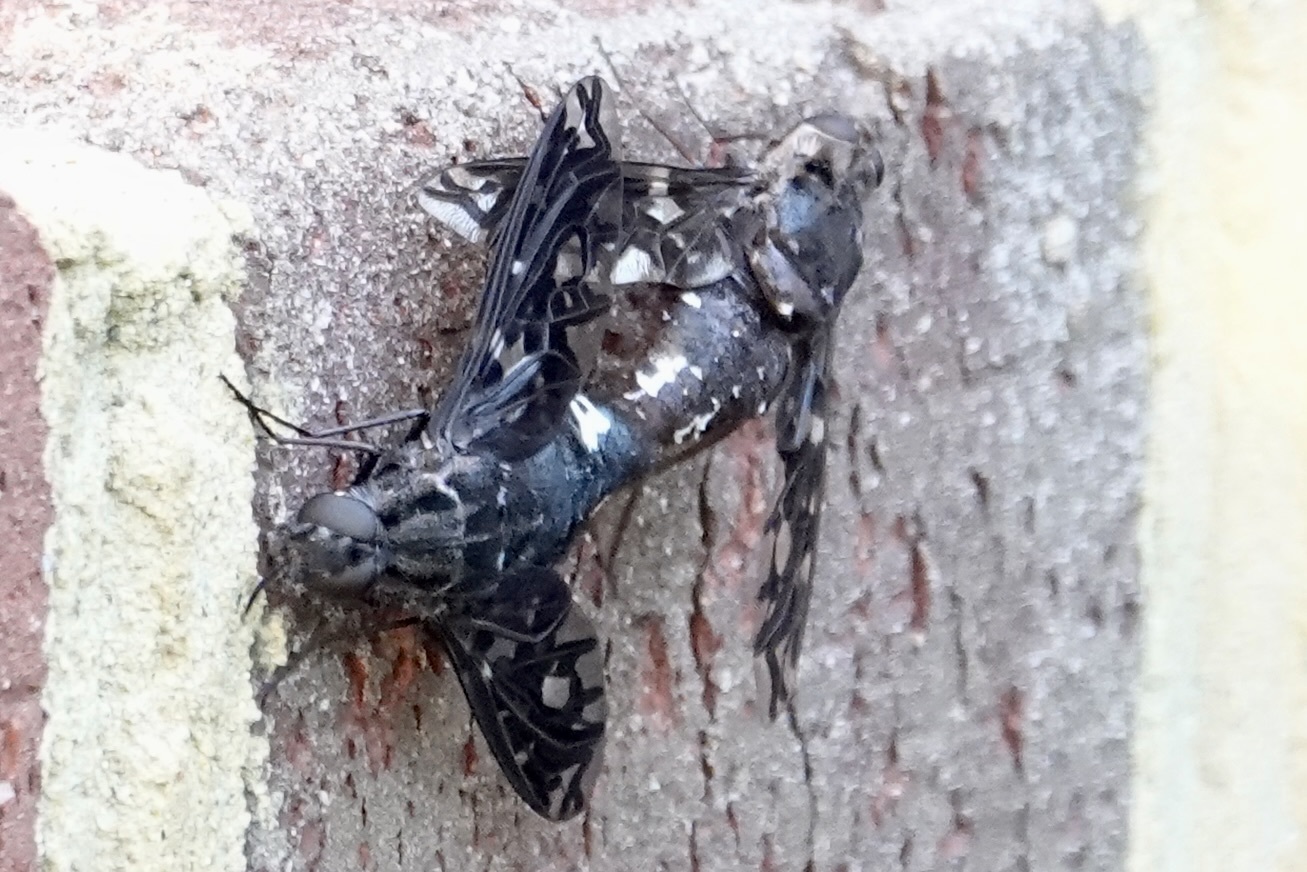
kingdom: Animalia
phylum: Arthropoda
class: Insecta
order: Diptera
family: Bombyliidae
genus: Xenox
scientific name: Xenox tigrinus
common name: Tiger bee fly
